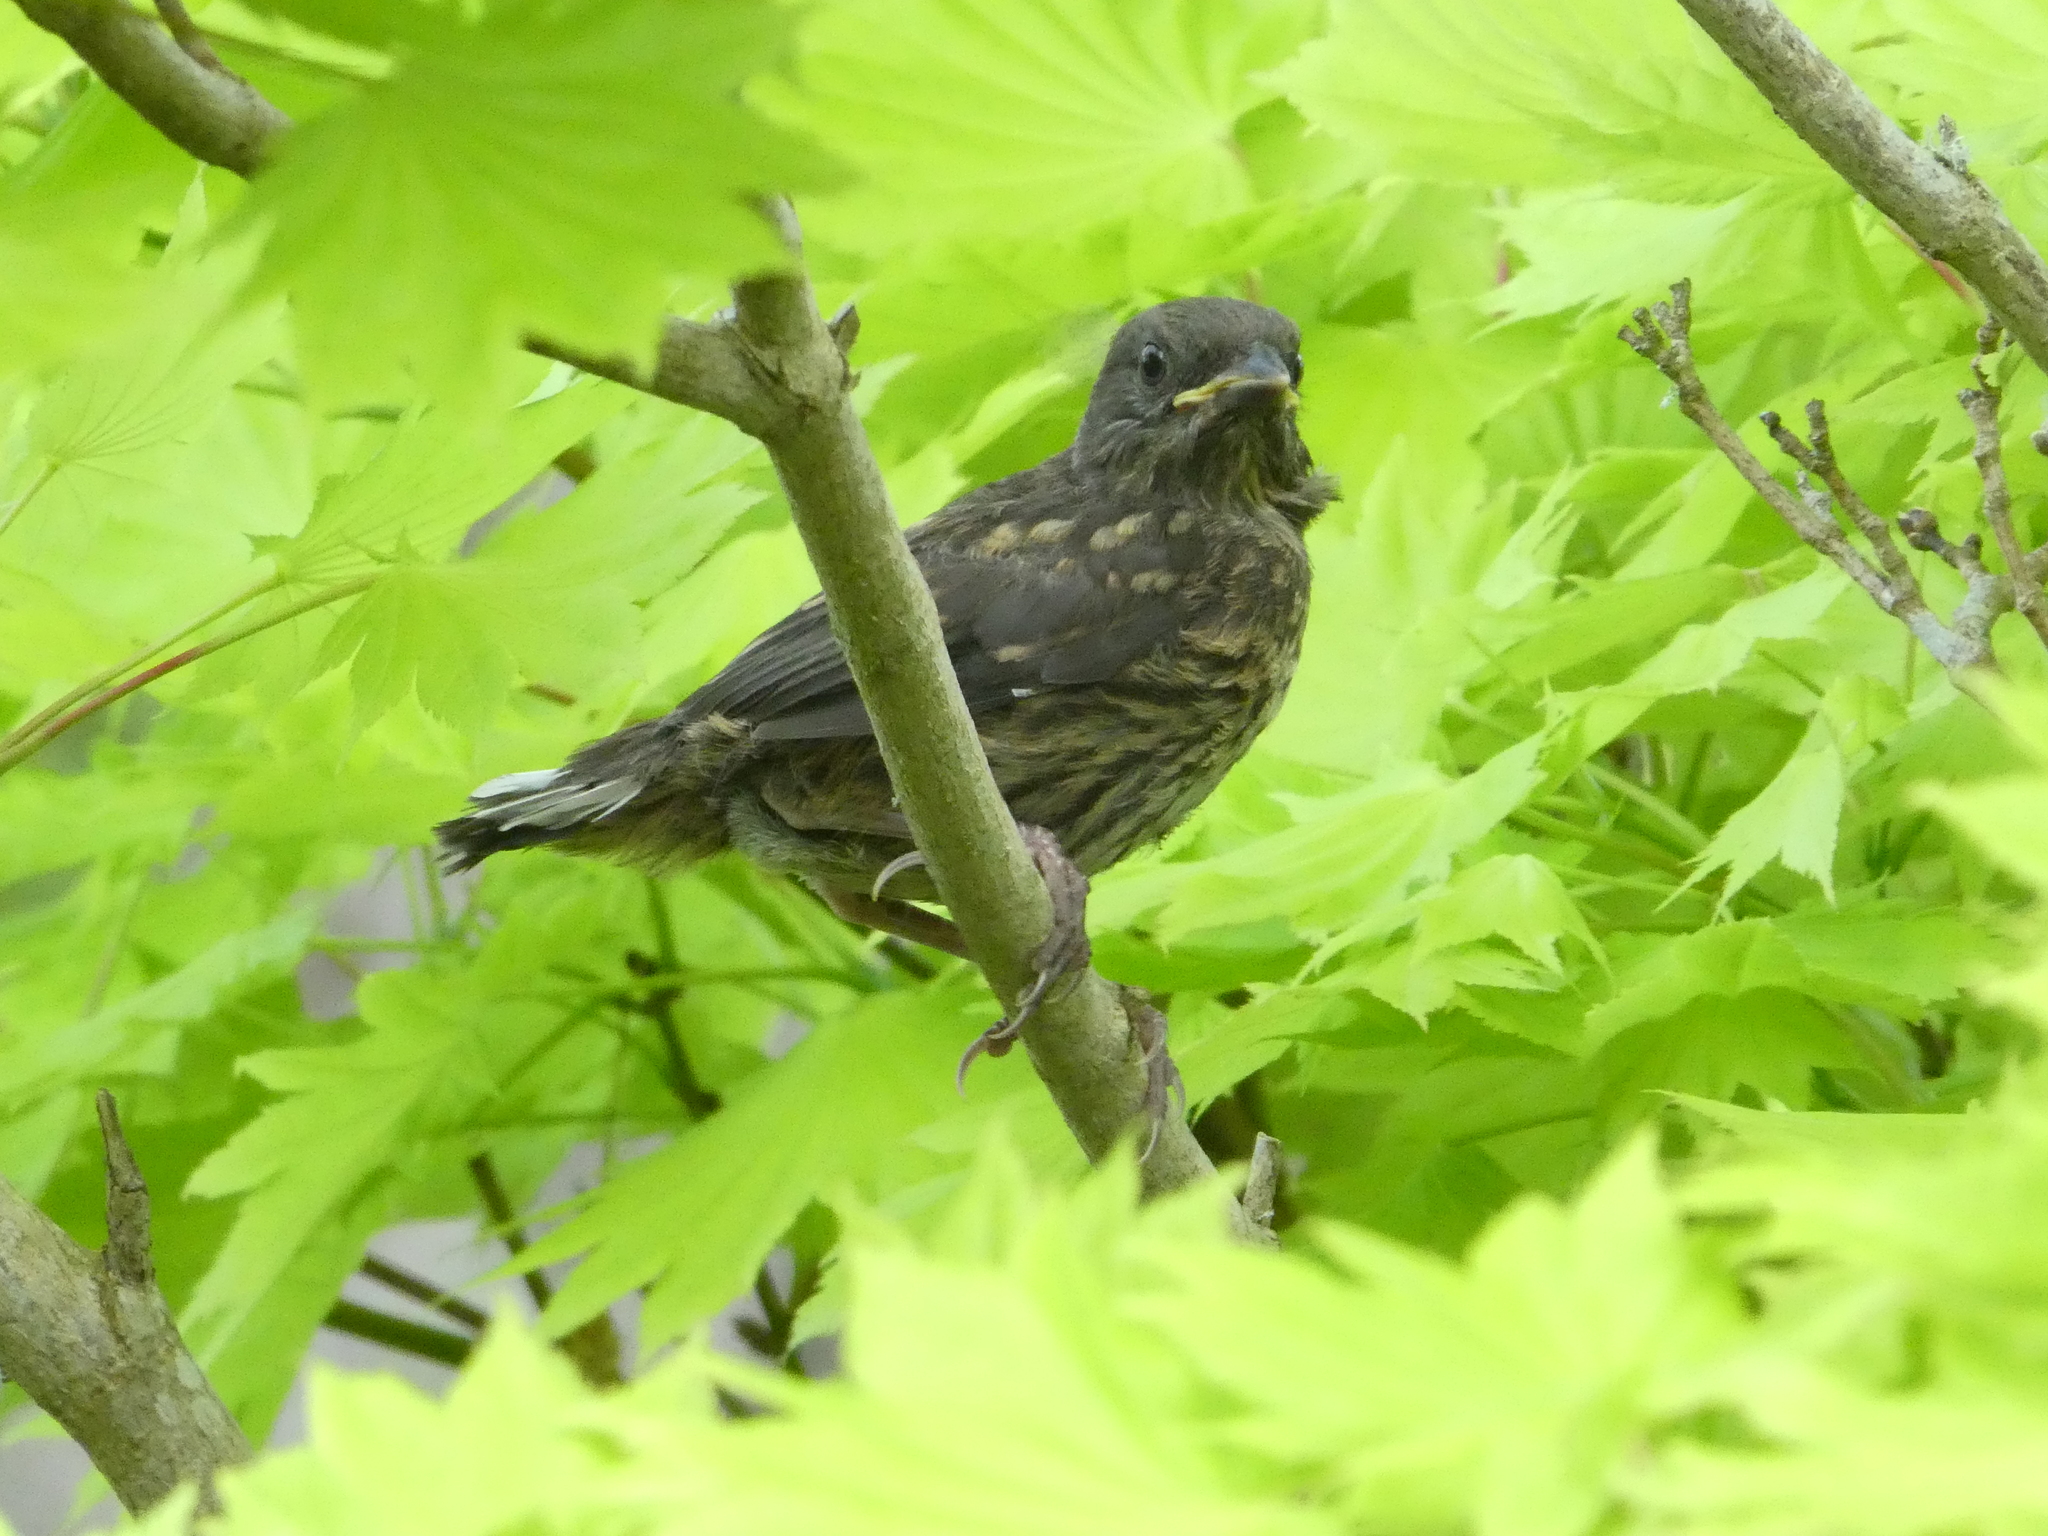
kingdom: Animalia
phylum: Chordata
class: Aves
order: Passeriformes
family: Passerellidae
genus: Pipilo
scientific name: Pipilo maculatus
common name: Spotted towhee
